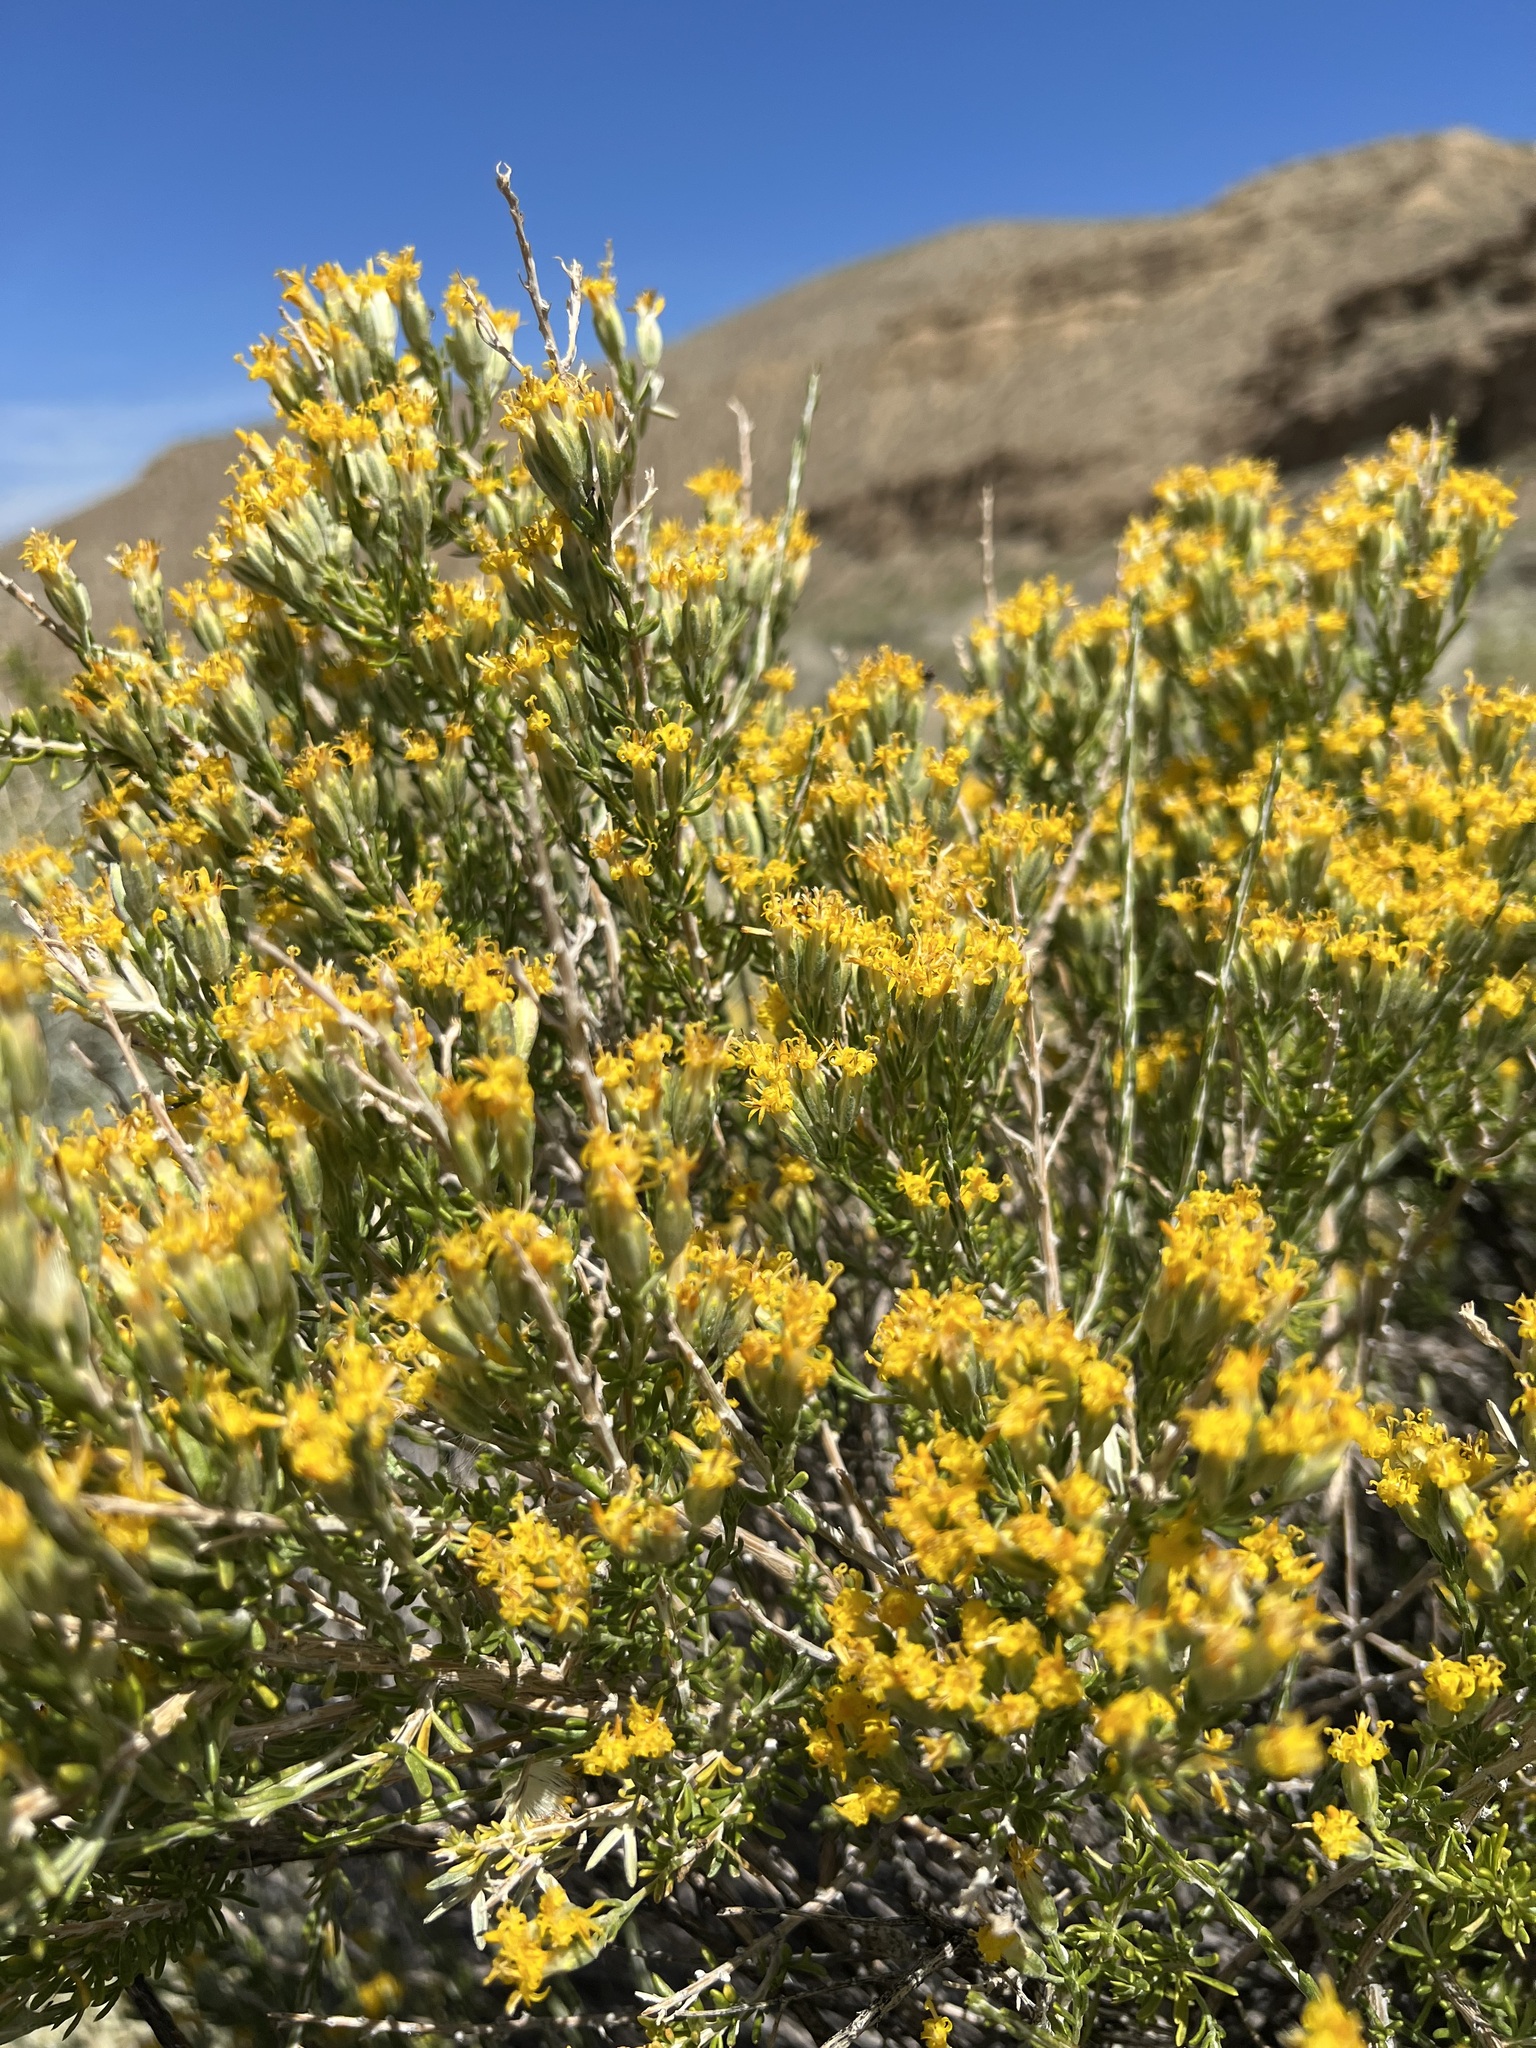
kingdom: Plantae
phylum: Tracheophyta
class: Magnoliopsida
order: Asterales
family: Asteraceae
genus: Tetradymia
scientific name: Tetradymia glabrata
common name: Smooth tetradymia
